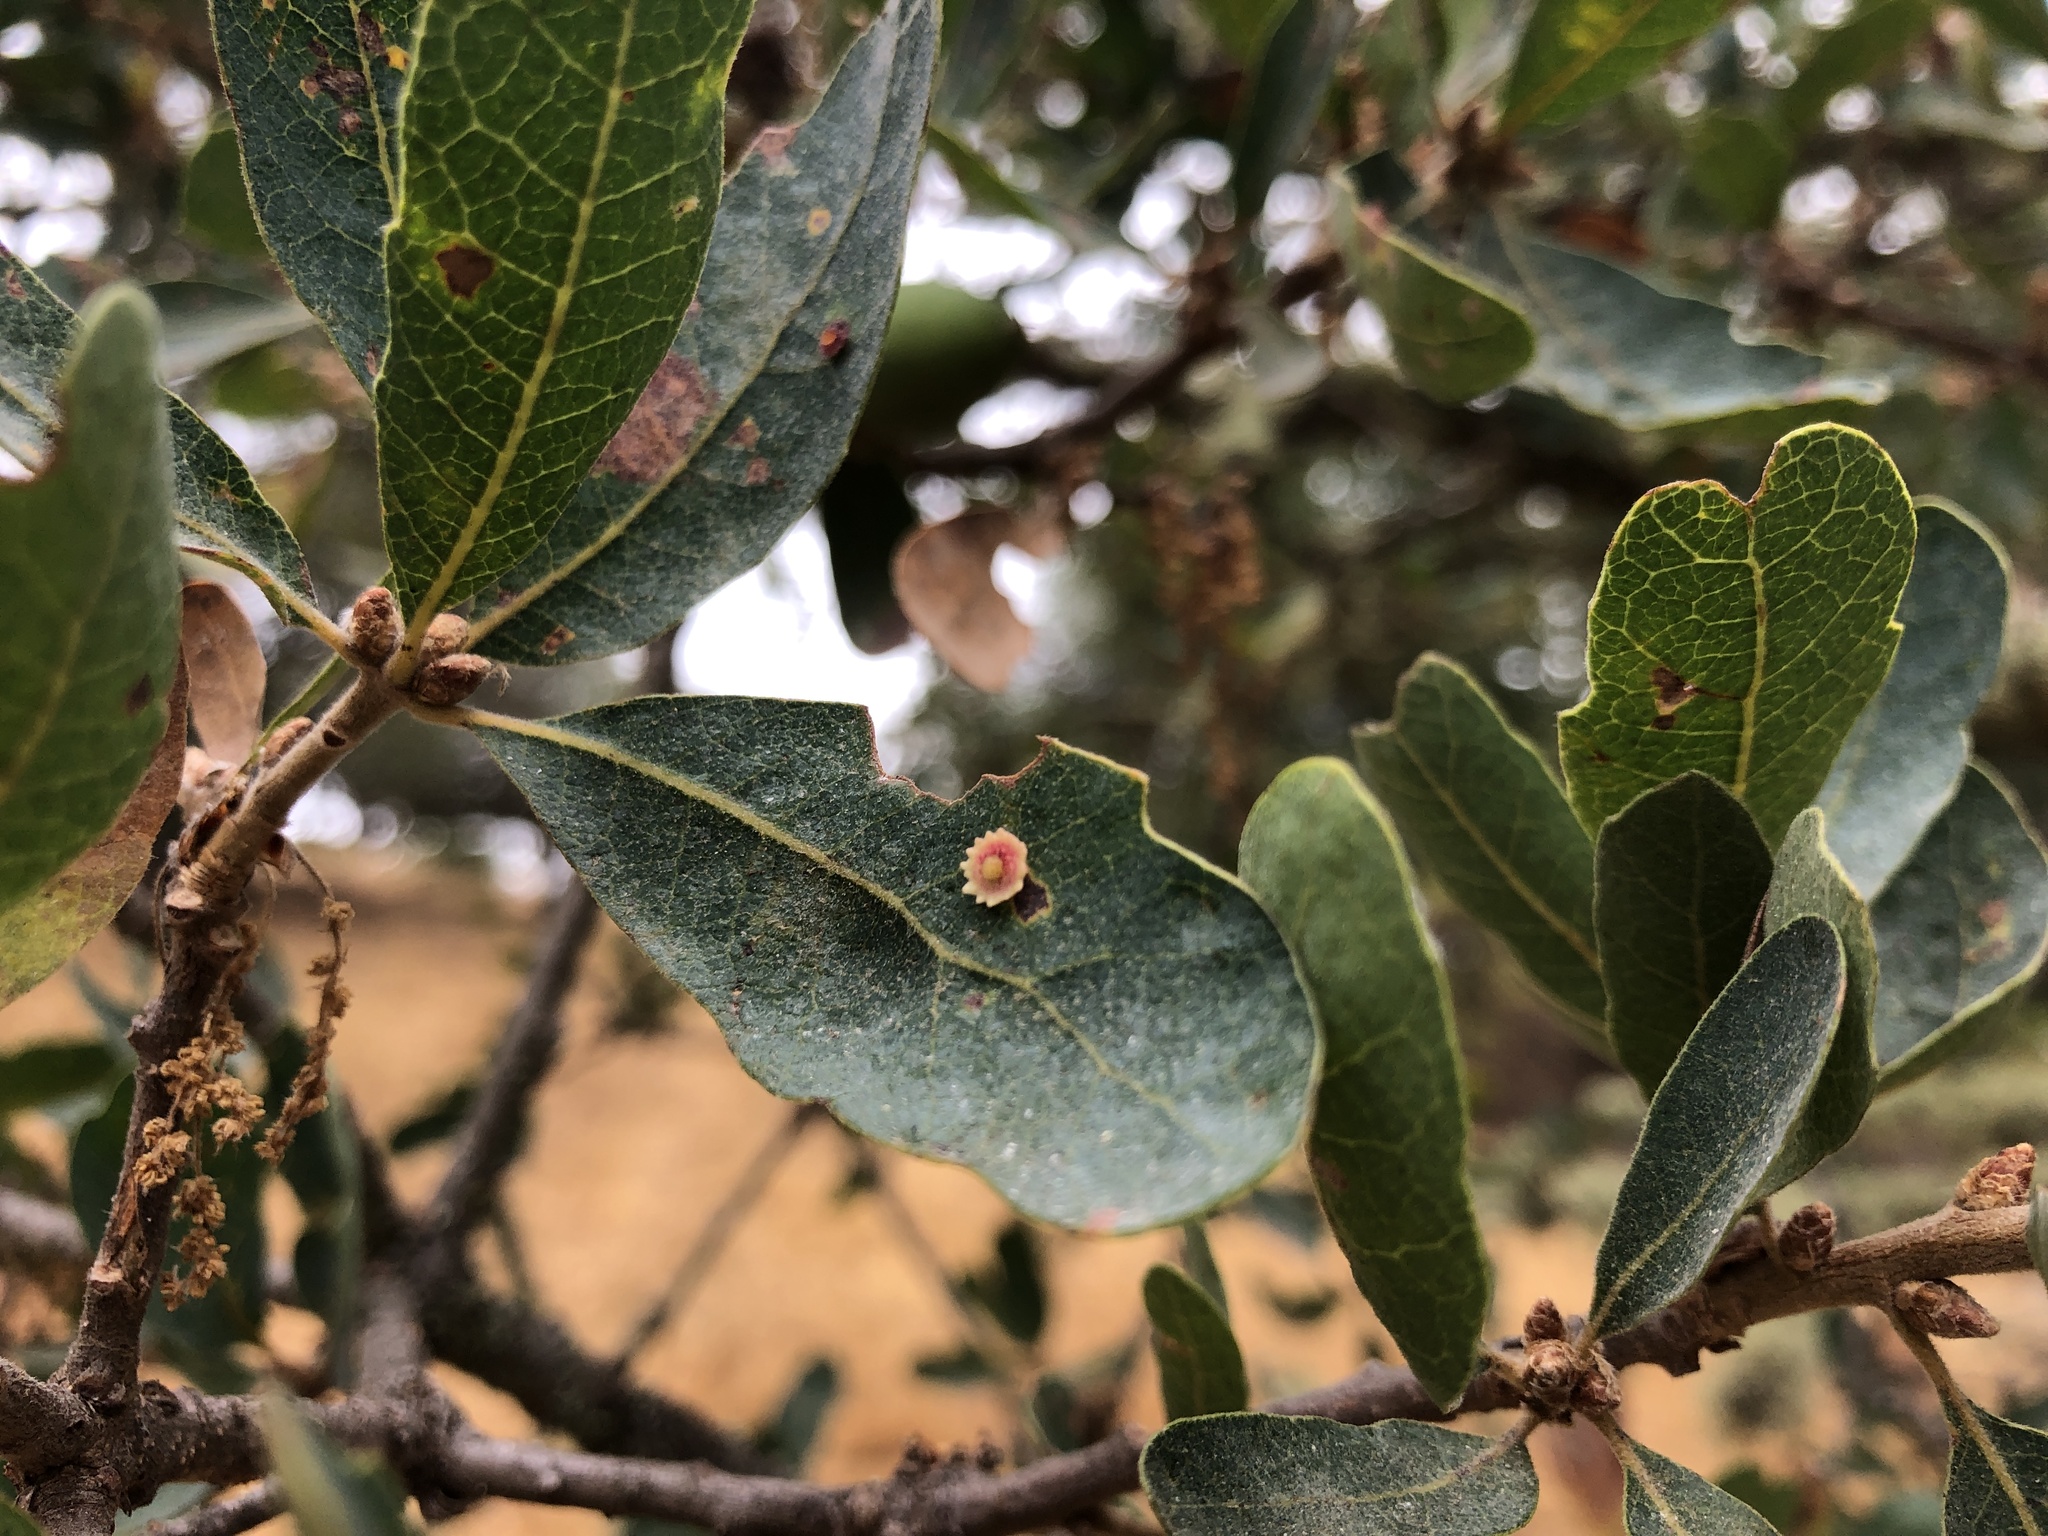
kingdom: Animalia
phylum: Arthropoda
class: Insecta
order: Hymenoptera
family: Cynipidae
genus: Andricus
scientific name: Andricus
